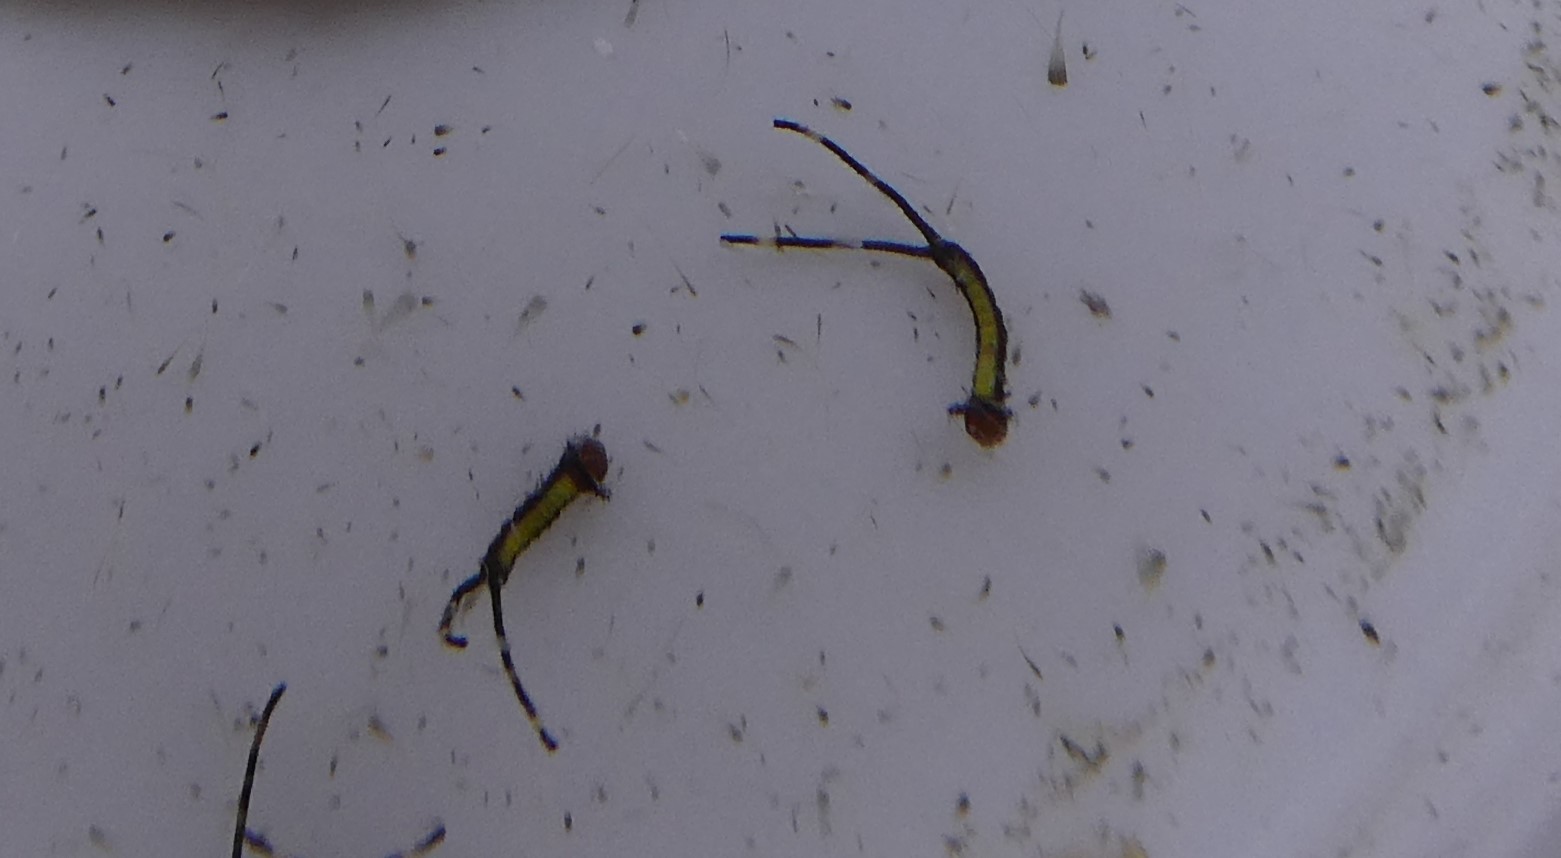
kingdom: Animalia
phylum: Arthropoda
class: Insecta
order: Lepidoptera
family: Notodontidae
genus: Furcula
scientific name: Furcula occidentalis
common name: Western furcula moth
